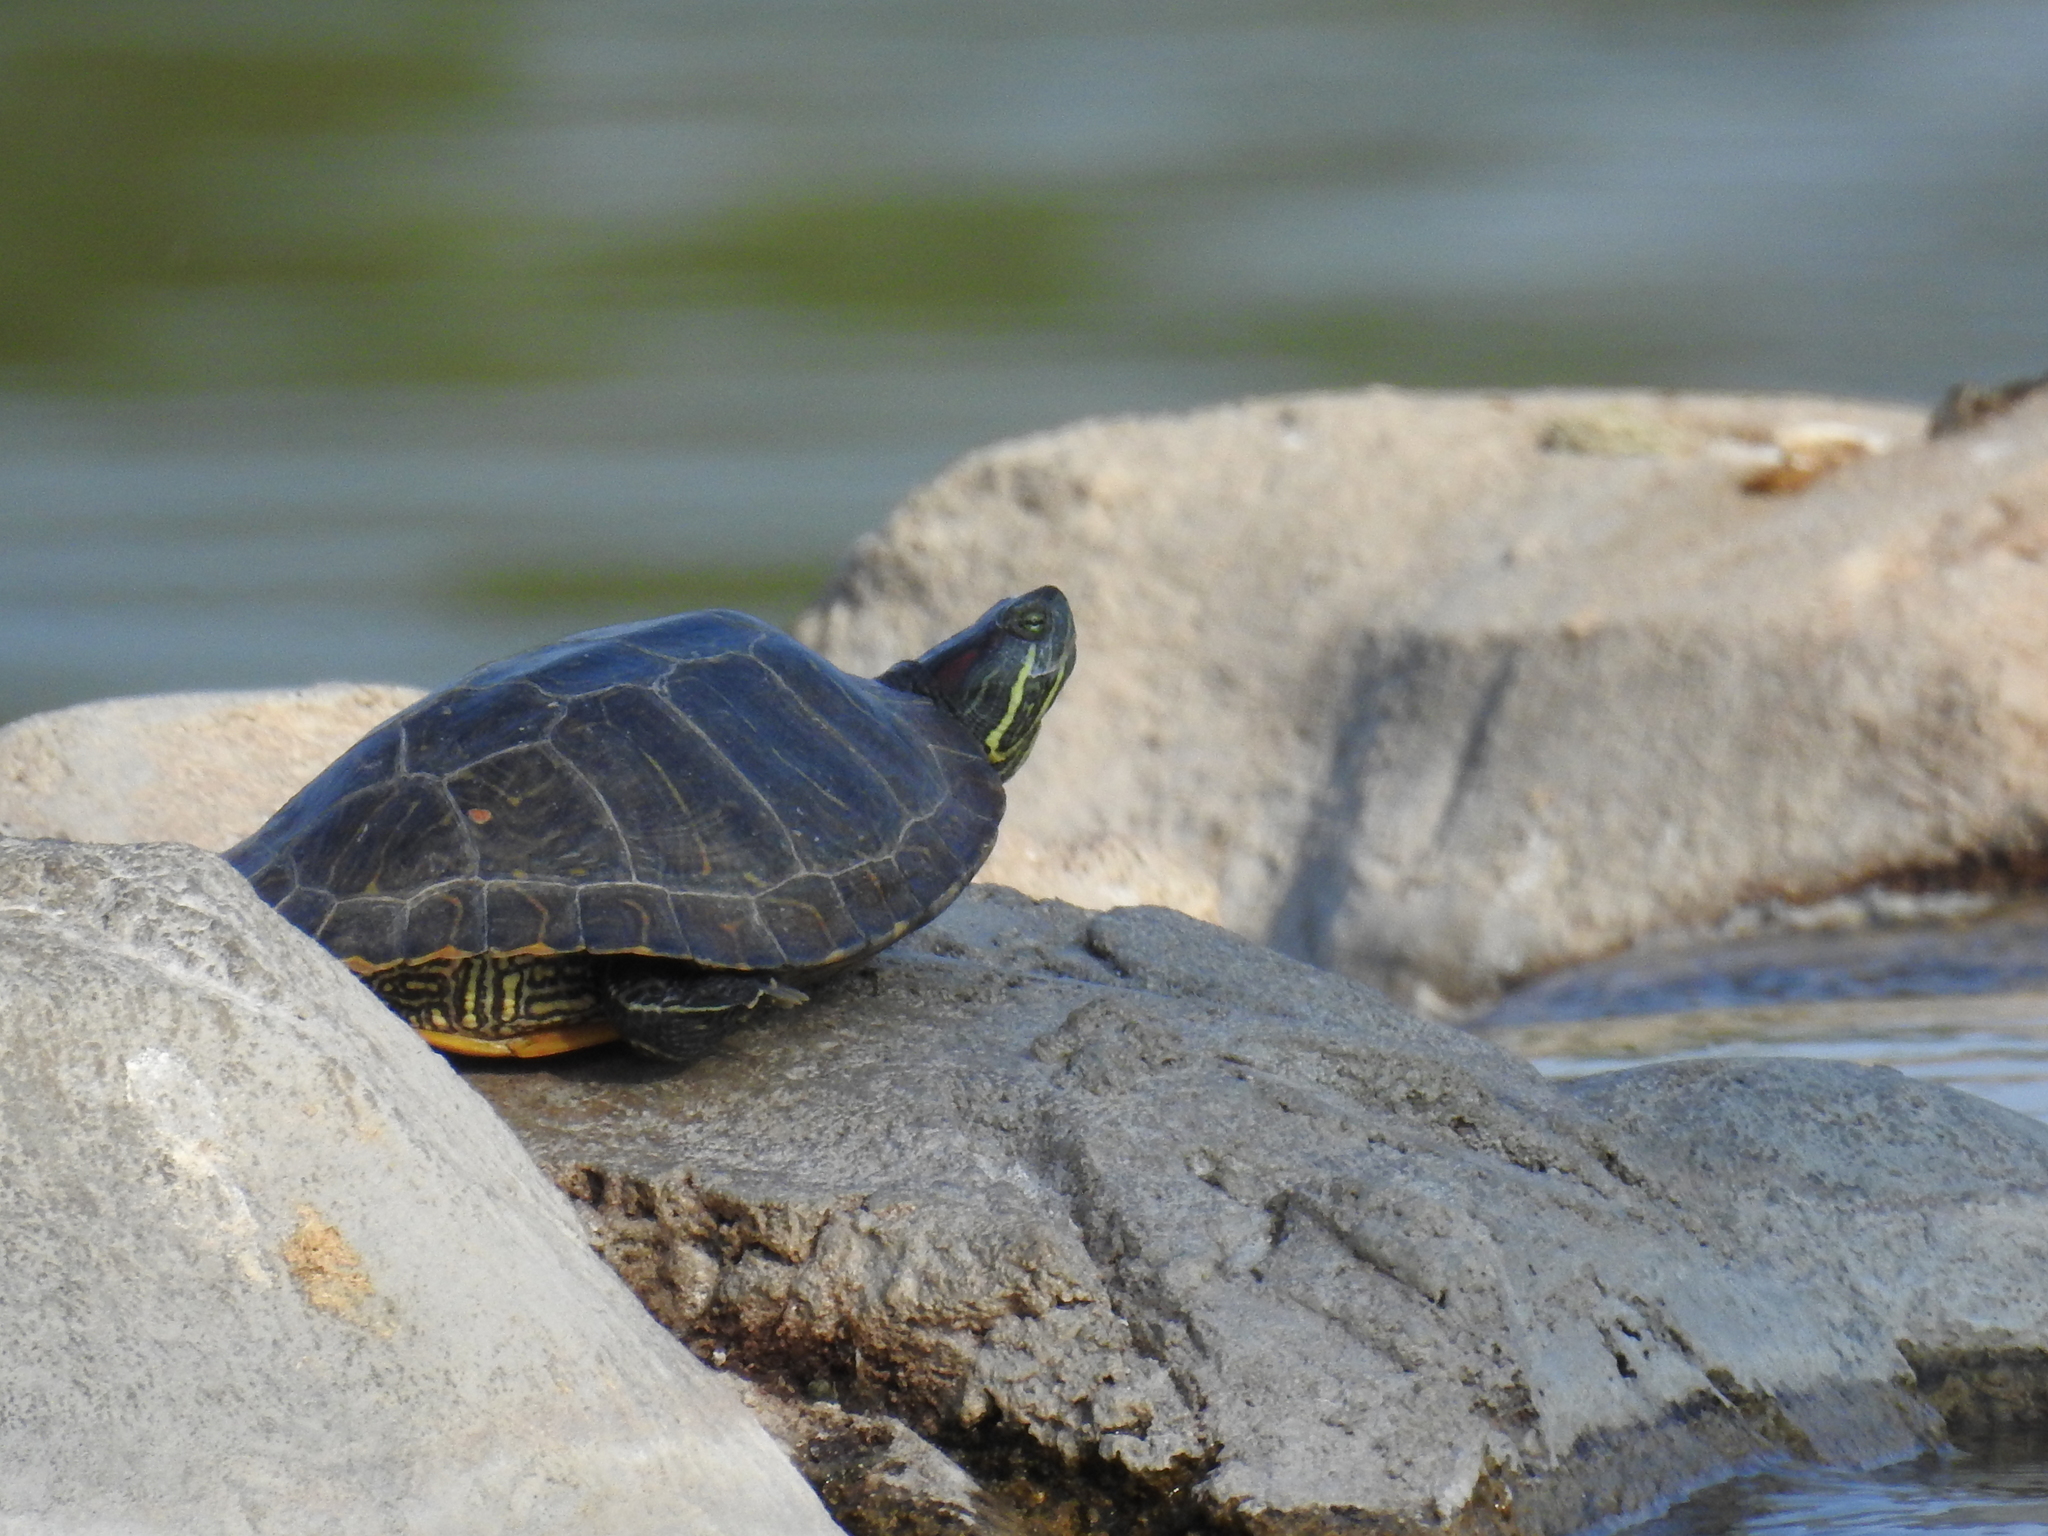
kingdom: Animalia
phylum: Chordata
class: Testudines
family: Emydidae
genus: Trachemys
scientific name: Trachemys scripta
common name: Slider
